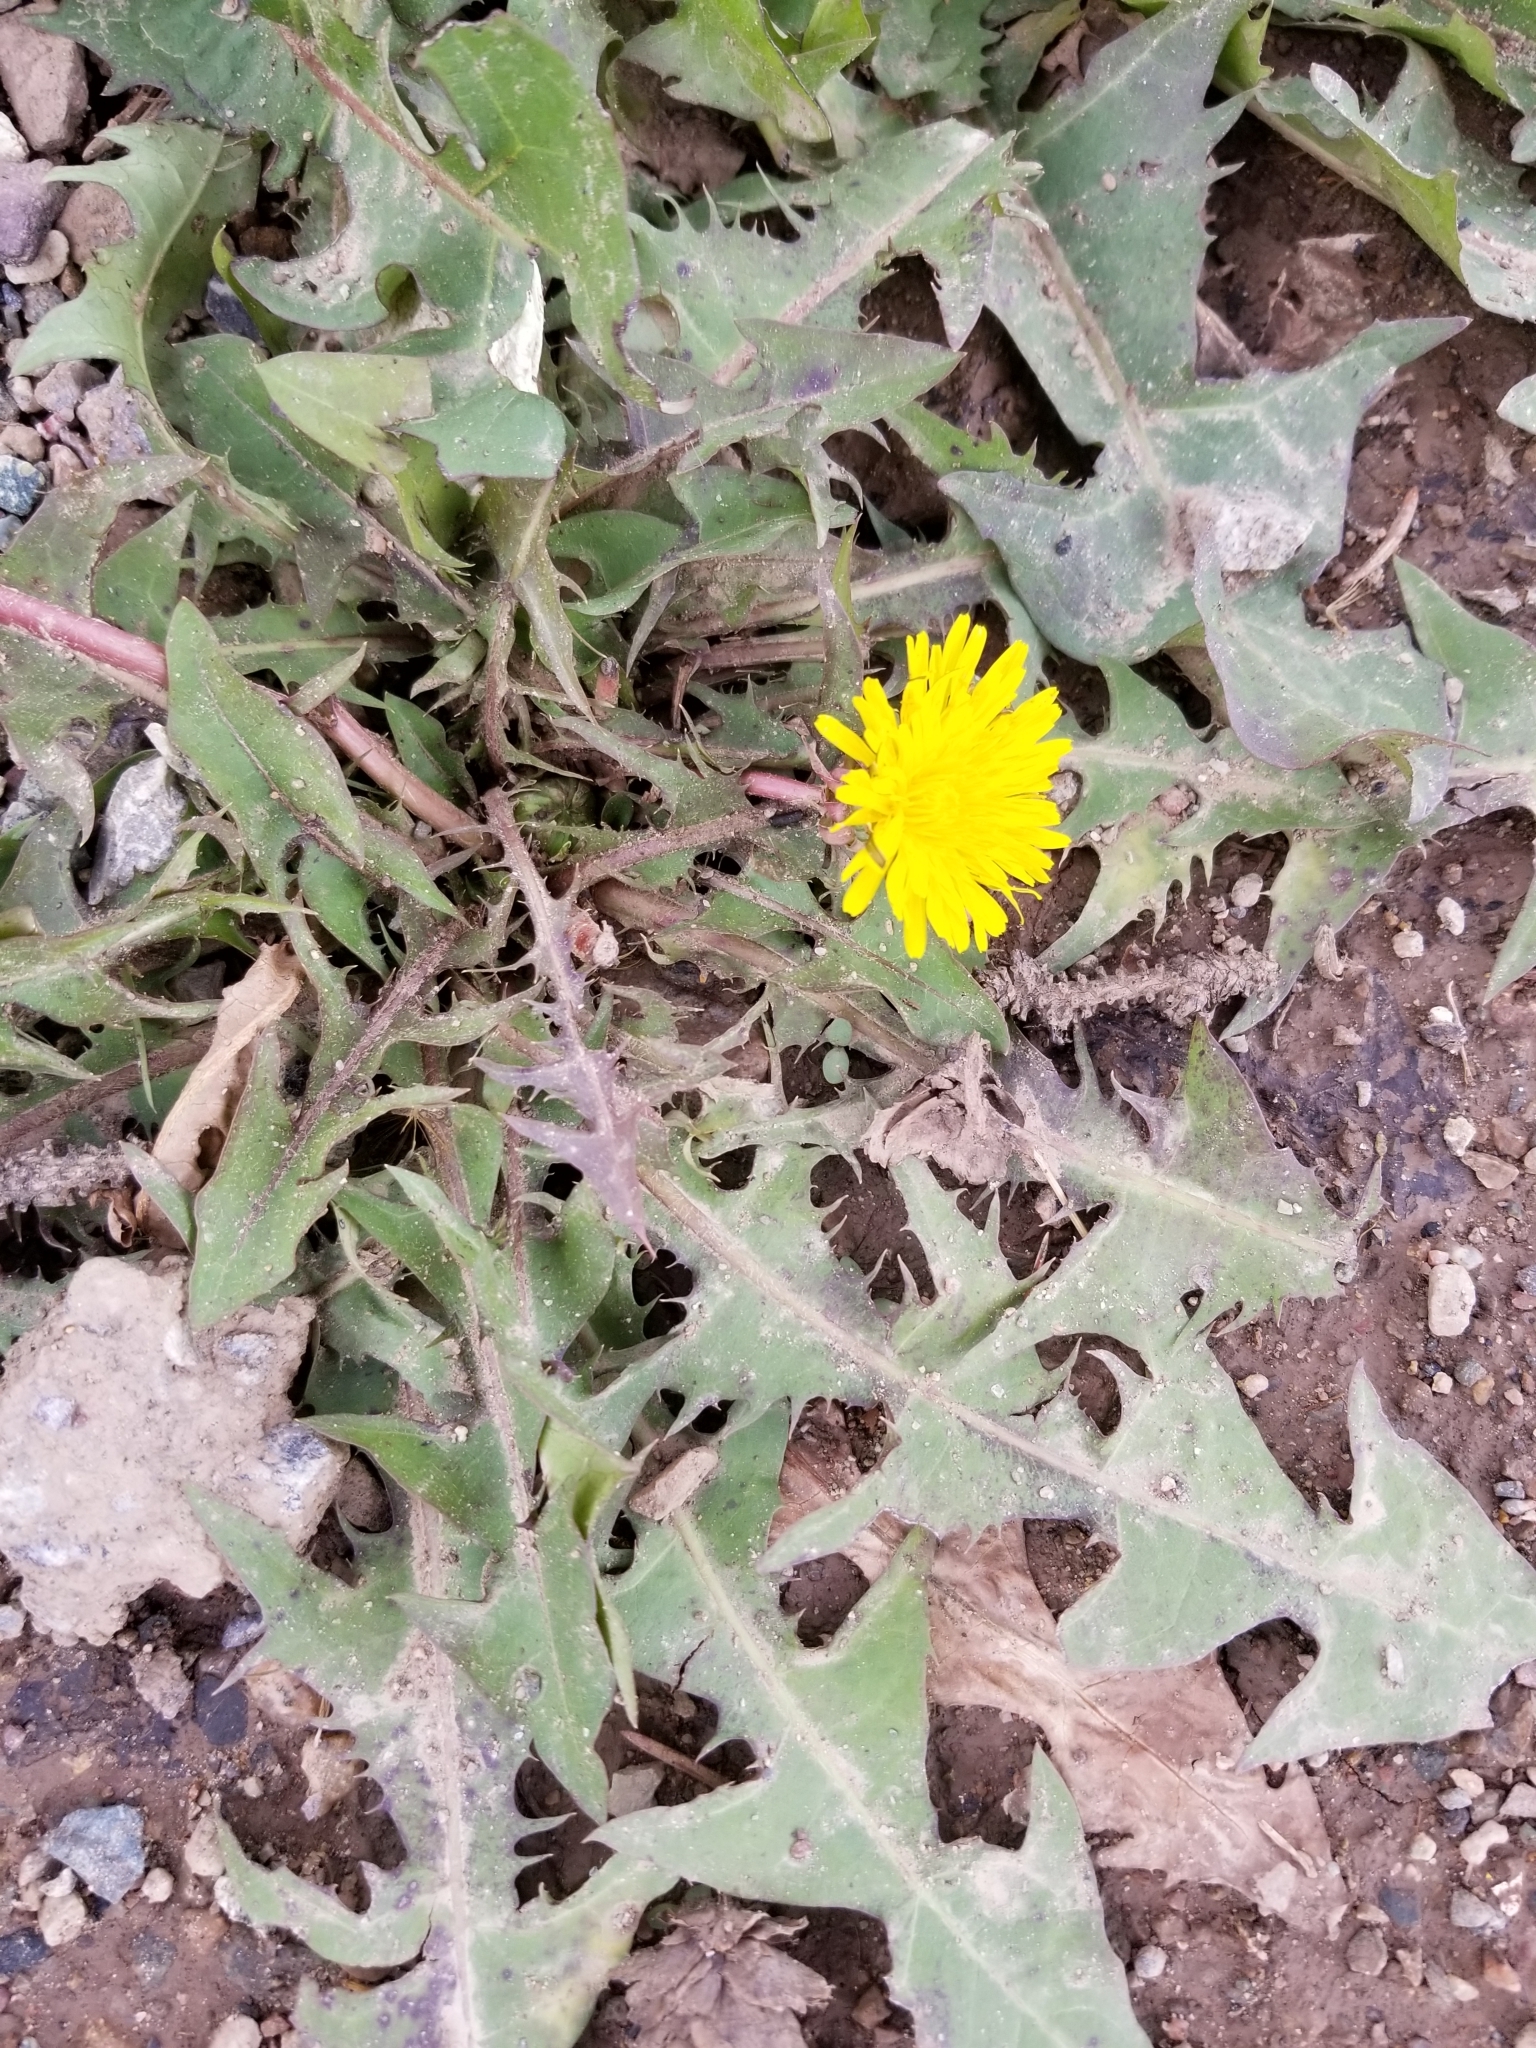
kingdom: Plantae
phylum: Tracheophyta
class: Magnoliopsida
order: Asterales
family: Asteraceae
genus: Taraxacum
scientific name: Taraxacum officinale
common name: Common dandelion
